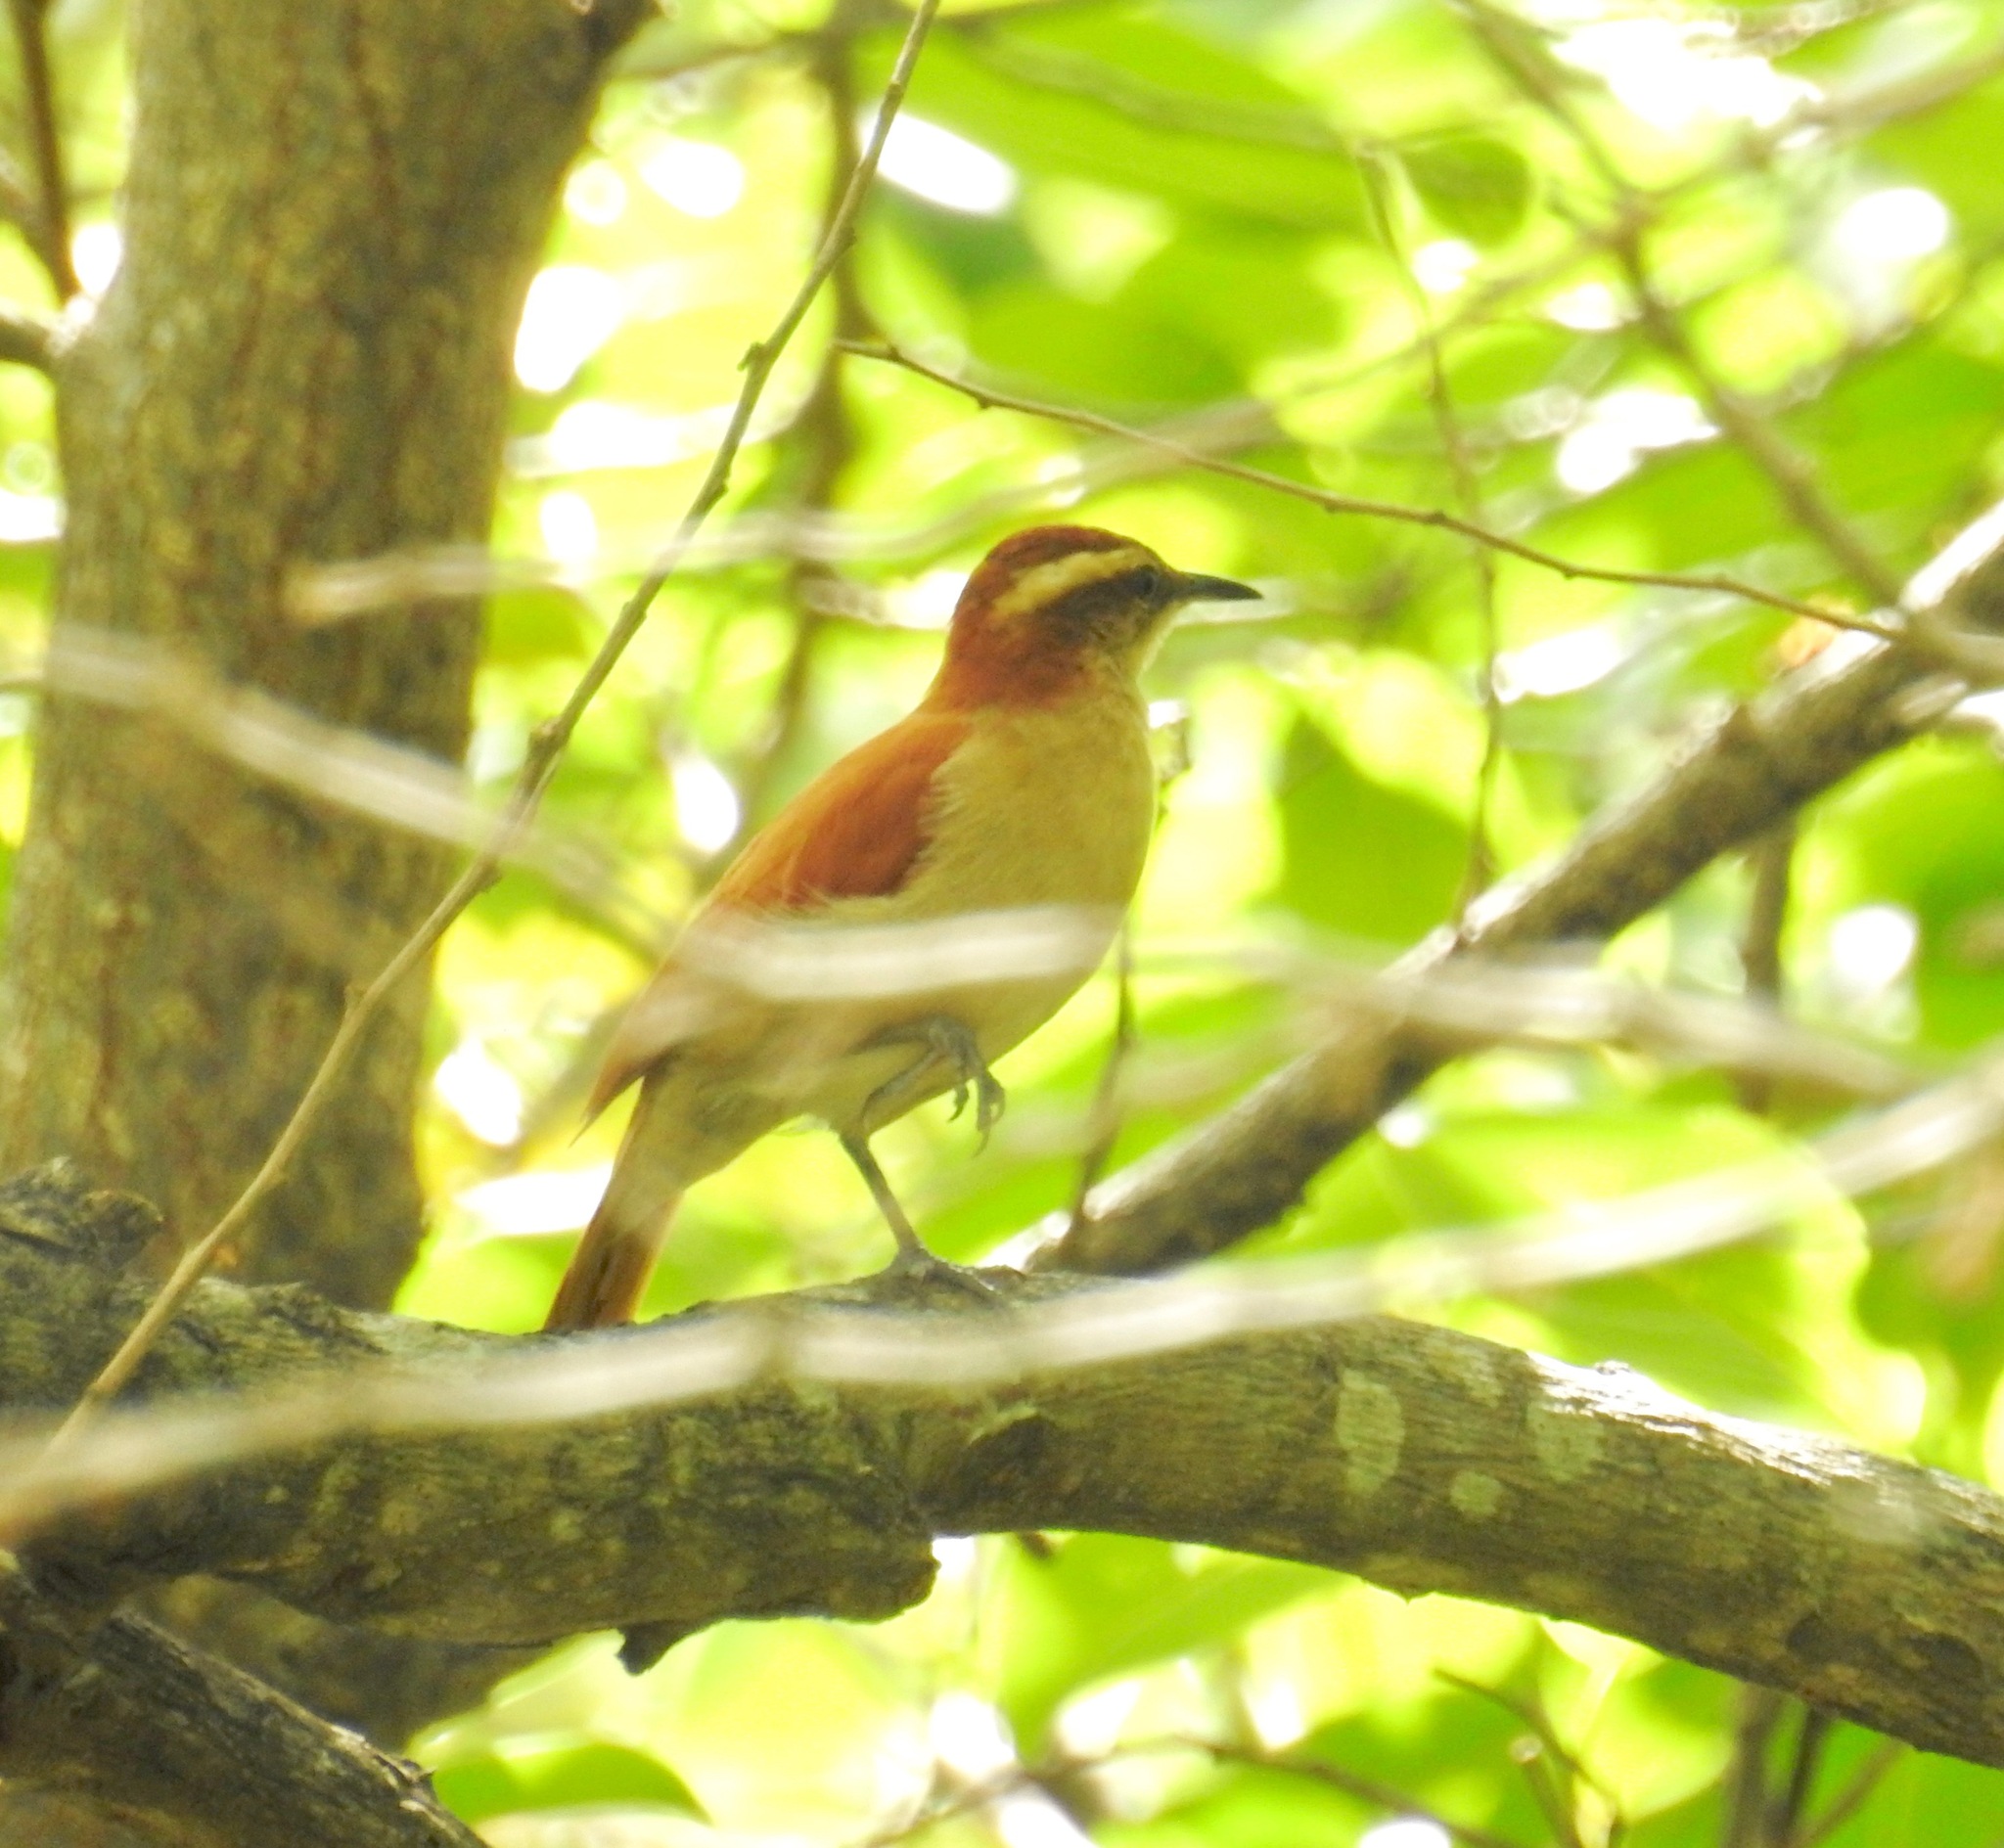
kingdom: Animalia
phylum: Chordata
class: Aves
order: Passeriformes
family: Furnariidae
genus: Furnarius
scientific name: Furnarius figulus
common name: Band-tailed hornero
